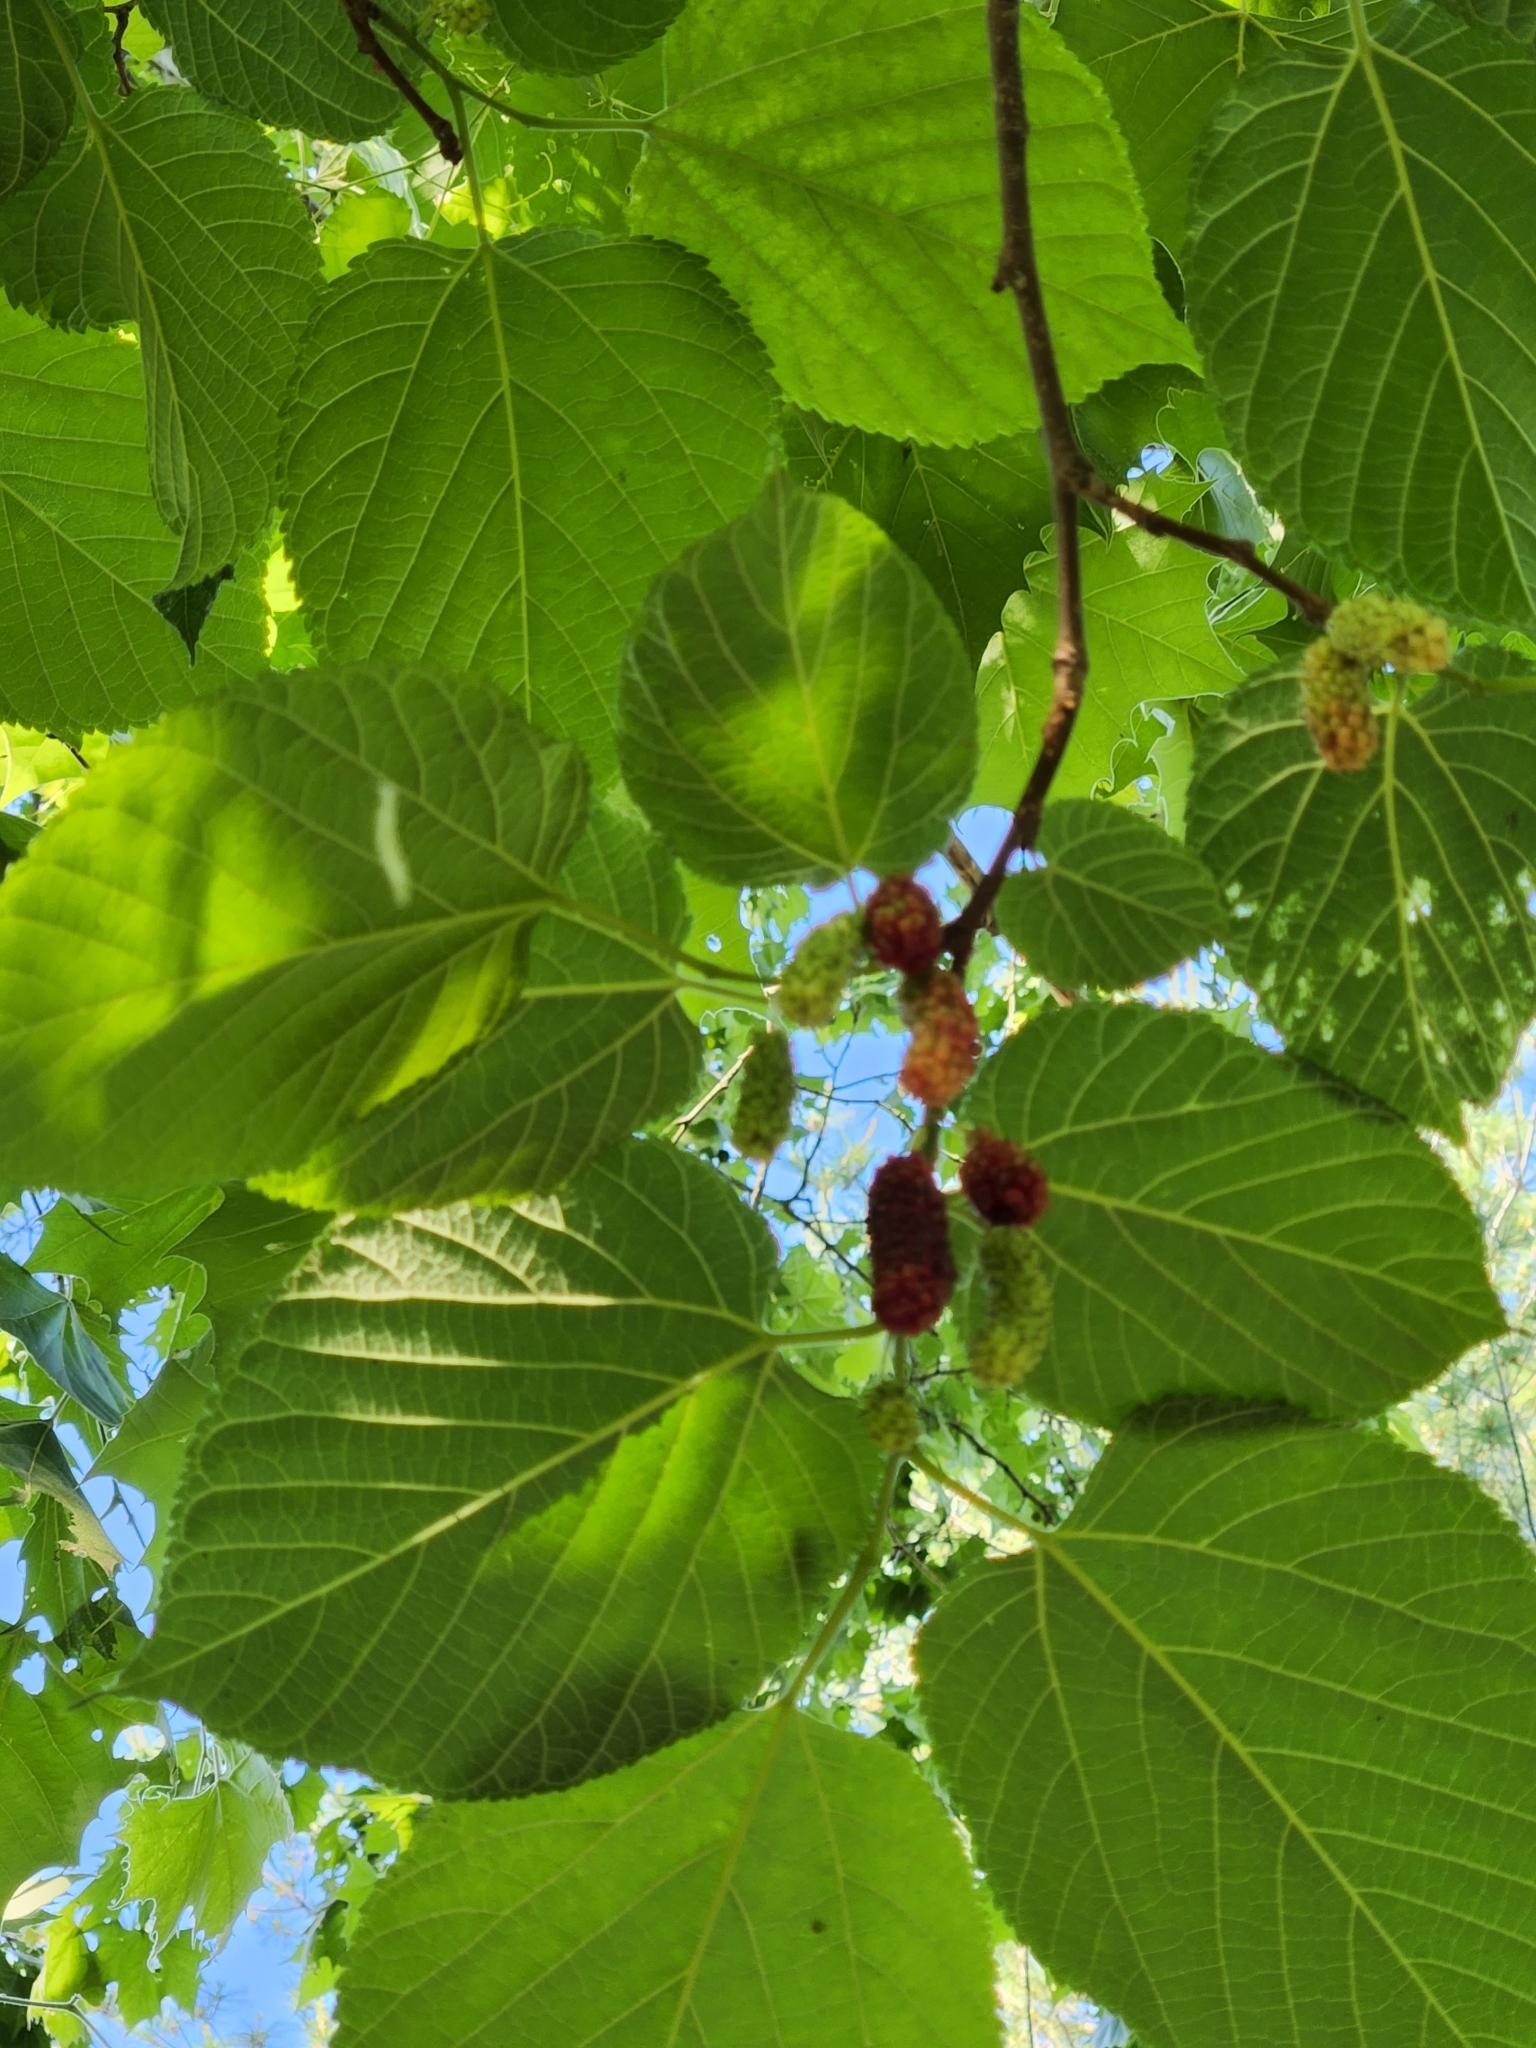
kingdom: Plantae
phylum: Tracheophyta
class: Magnoliopsida
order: Rosales
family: Moraceae
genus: Morus
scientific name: Morus rubra
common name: Red mulberry
